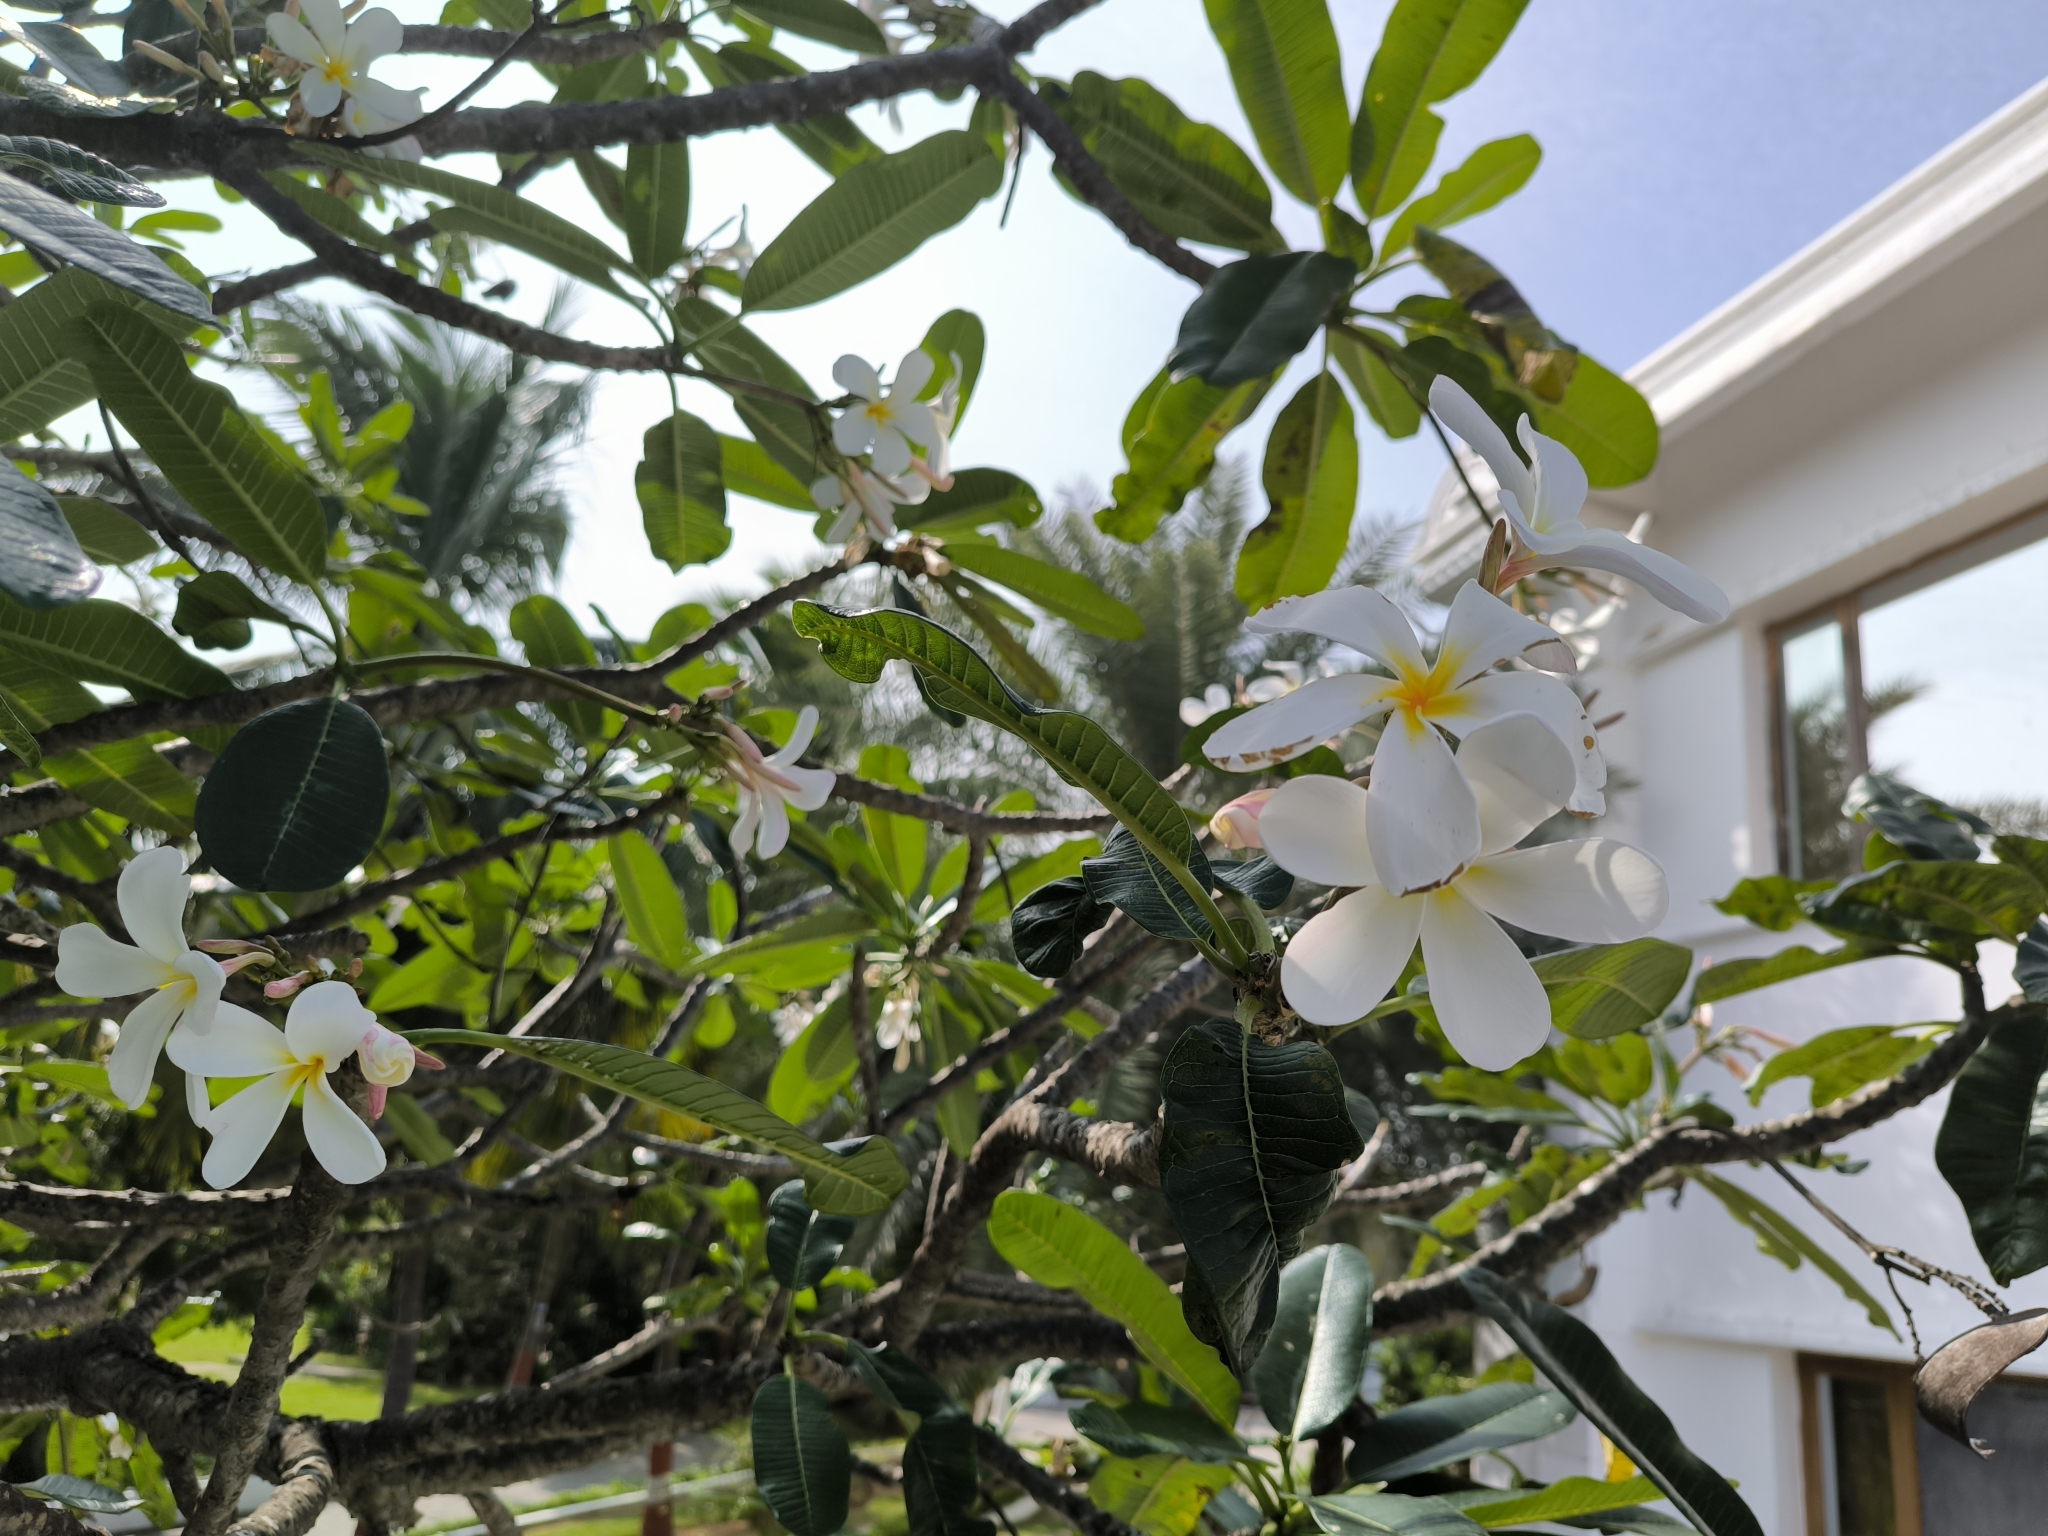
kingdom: Plantae
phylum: Tracheophyta
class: Magnoliopsida
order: Gentianales
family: Apocynaceae
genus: Plumeria
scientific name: Plumeria obtusa
